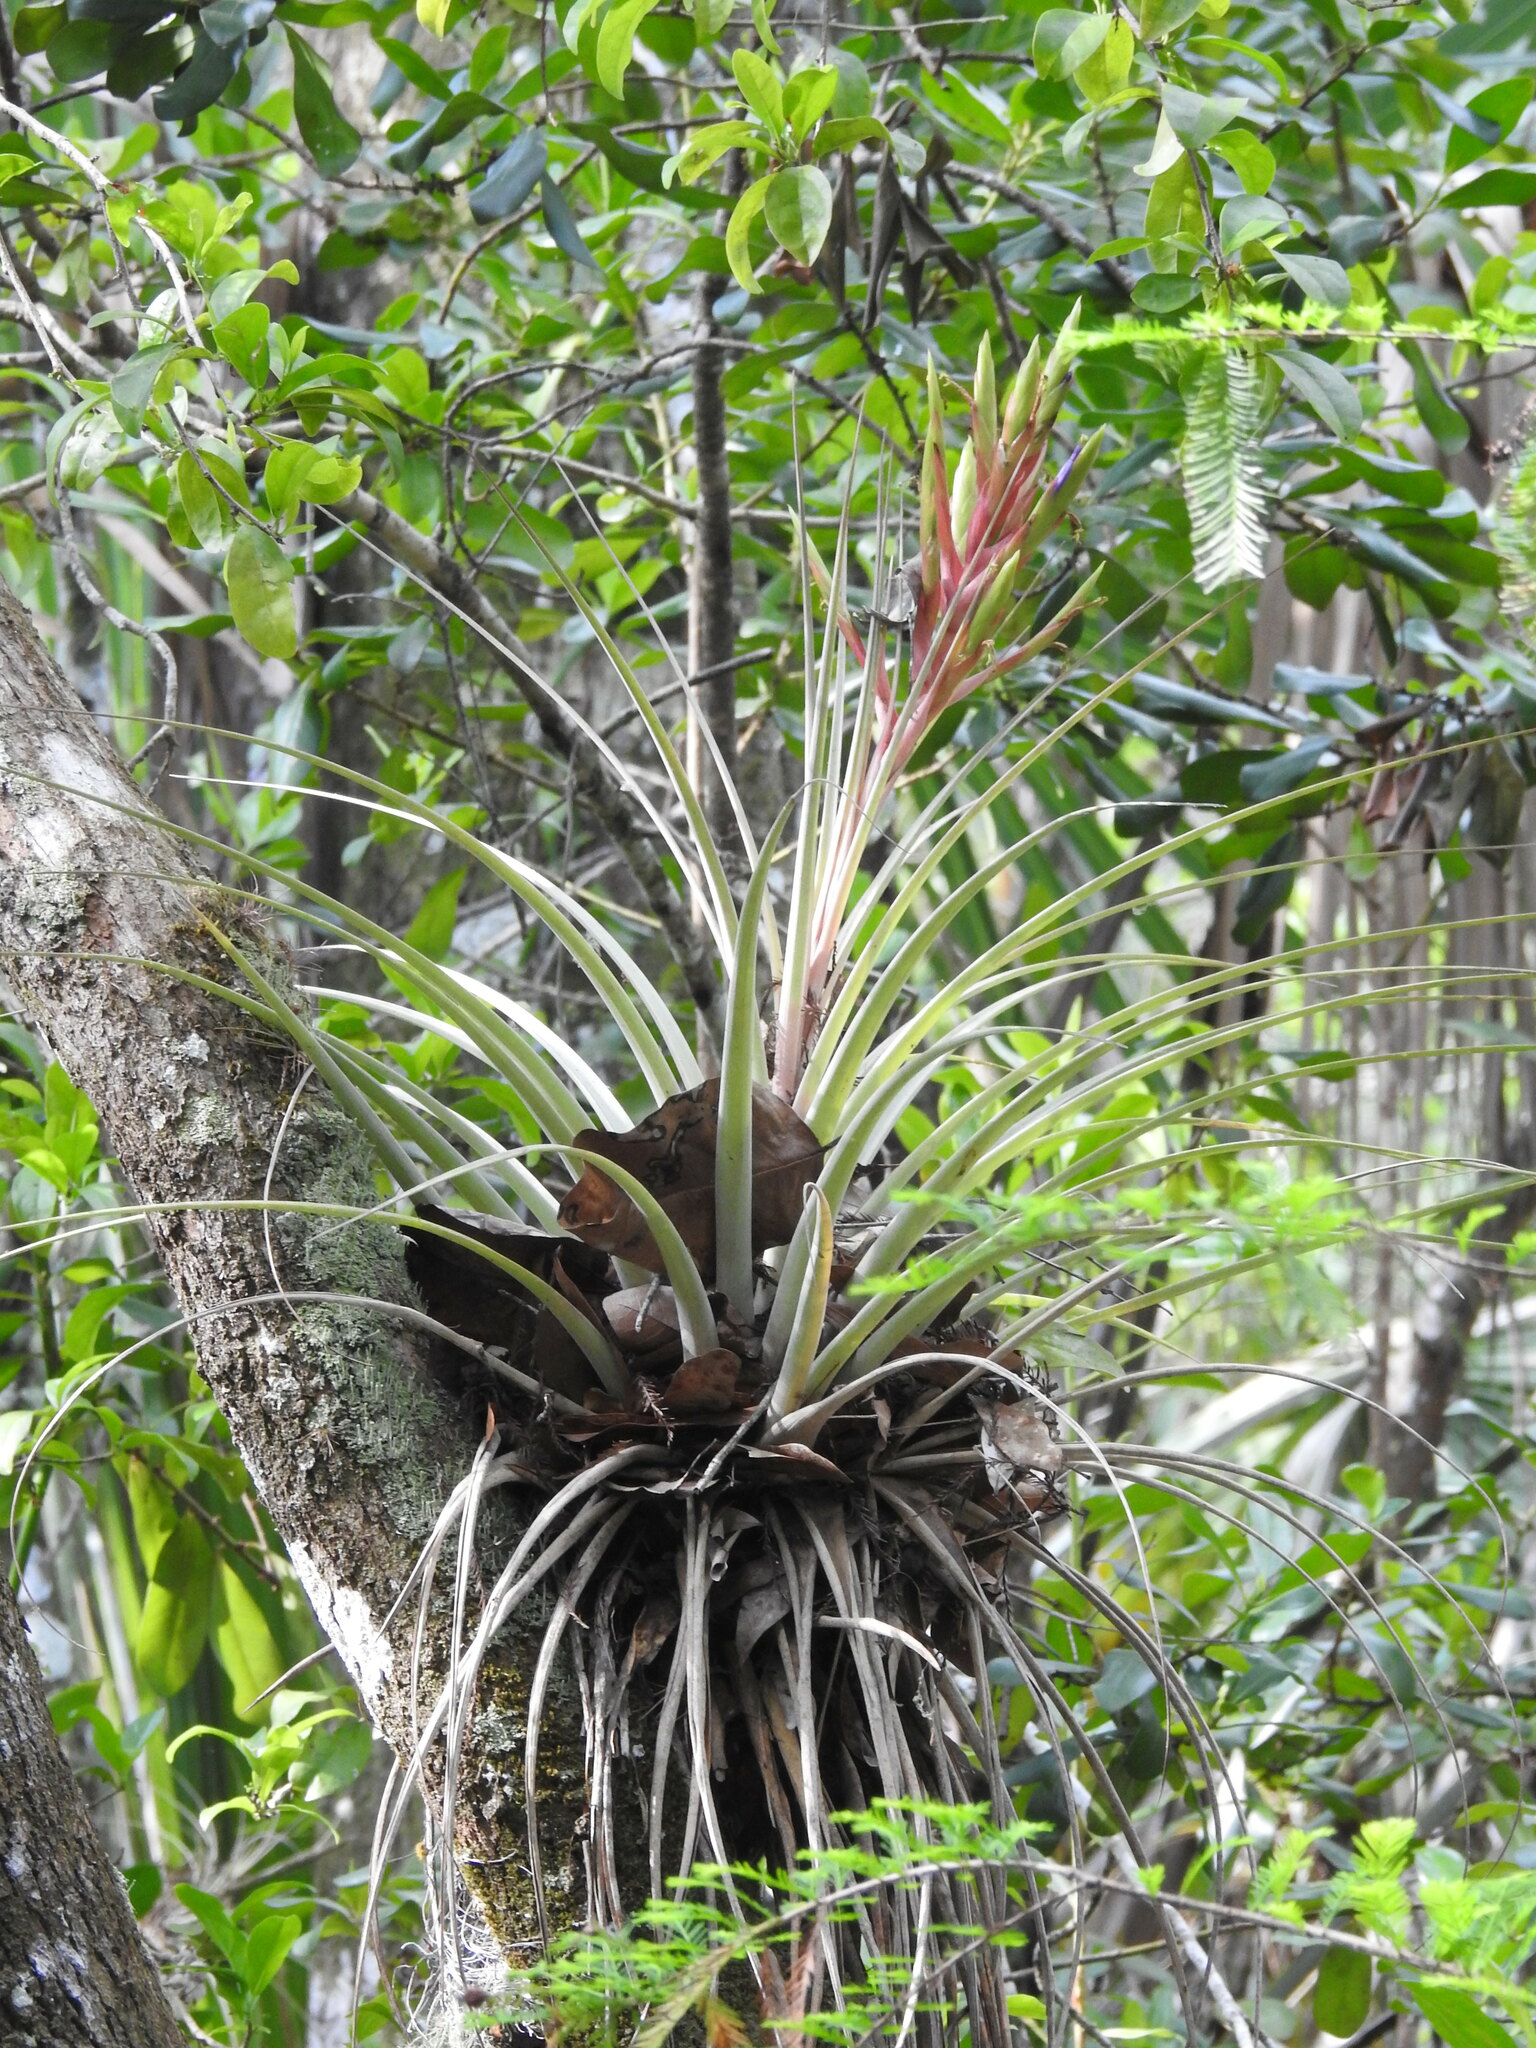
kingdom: Plantae
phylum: Tracheophyta
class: Liliopsida
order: Poales
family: Bromeliaceae
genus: Tillandsia
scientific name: Tillandsia fasciculata
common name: Giant airplant
